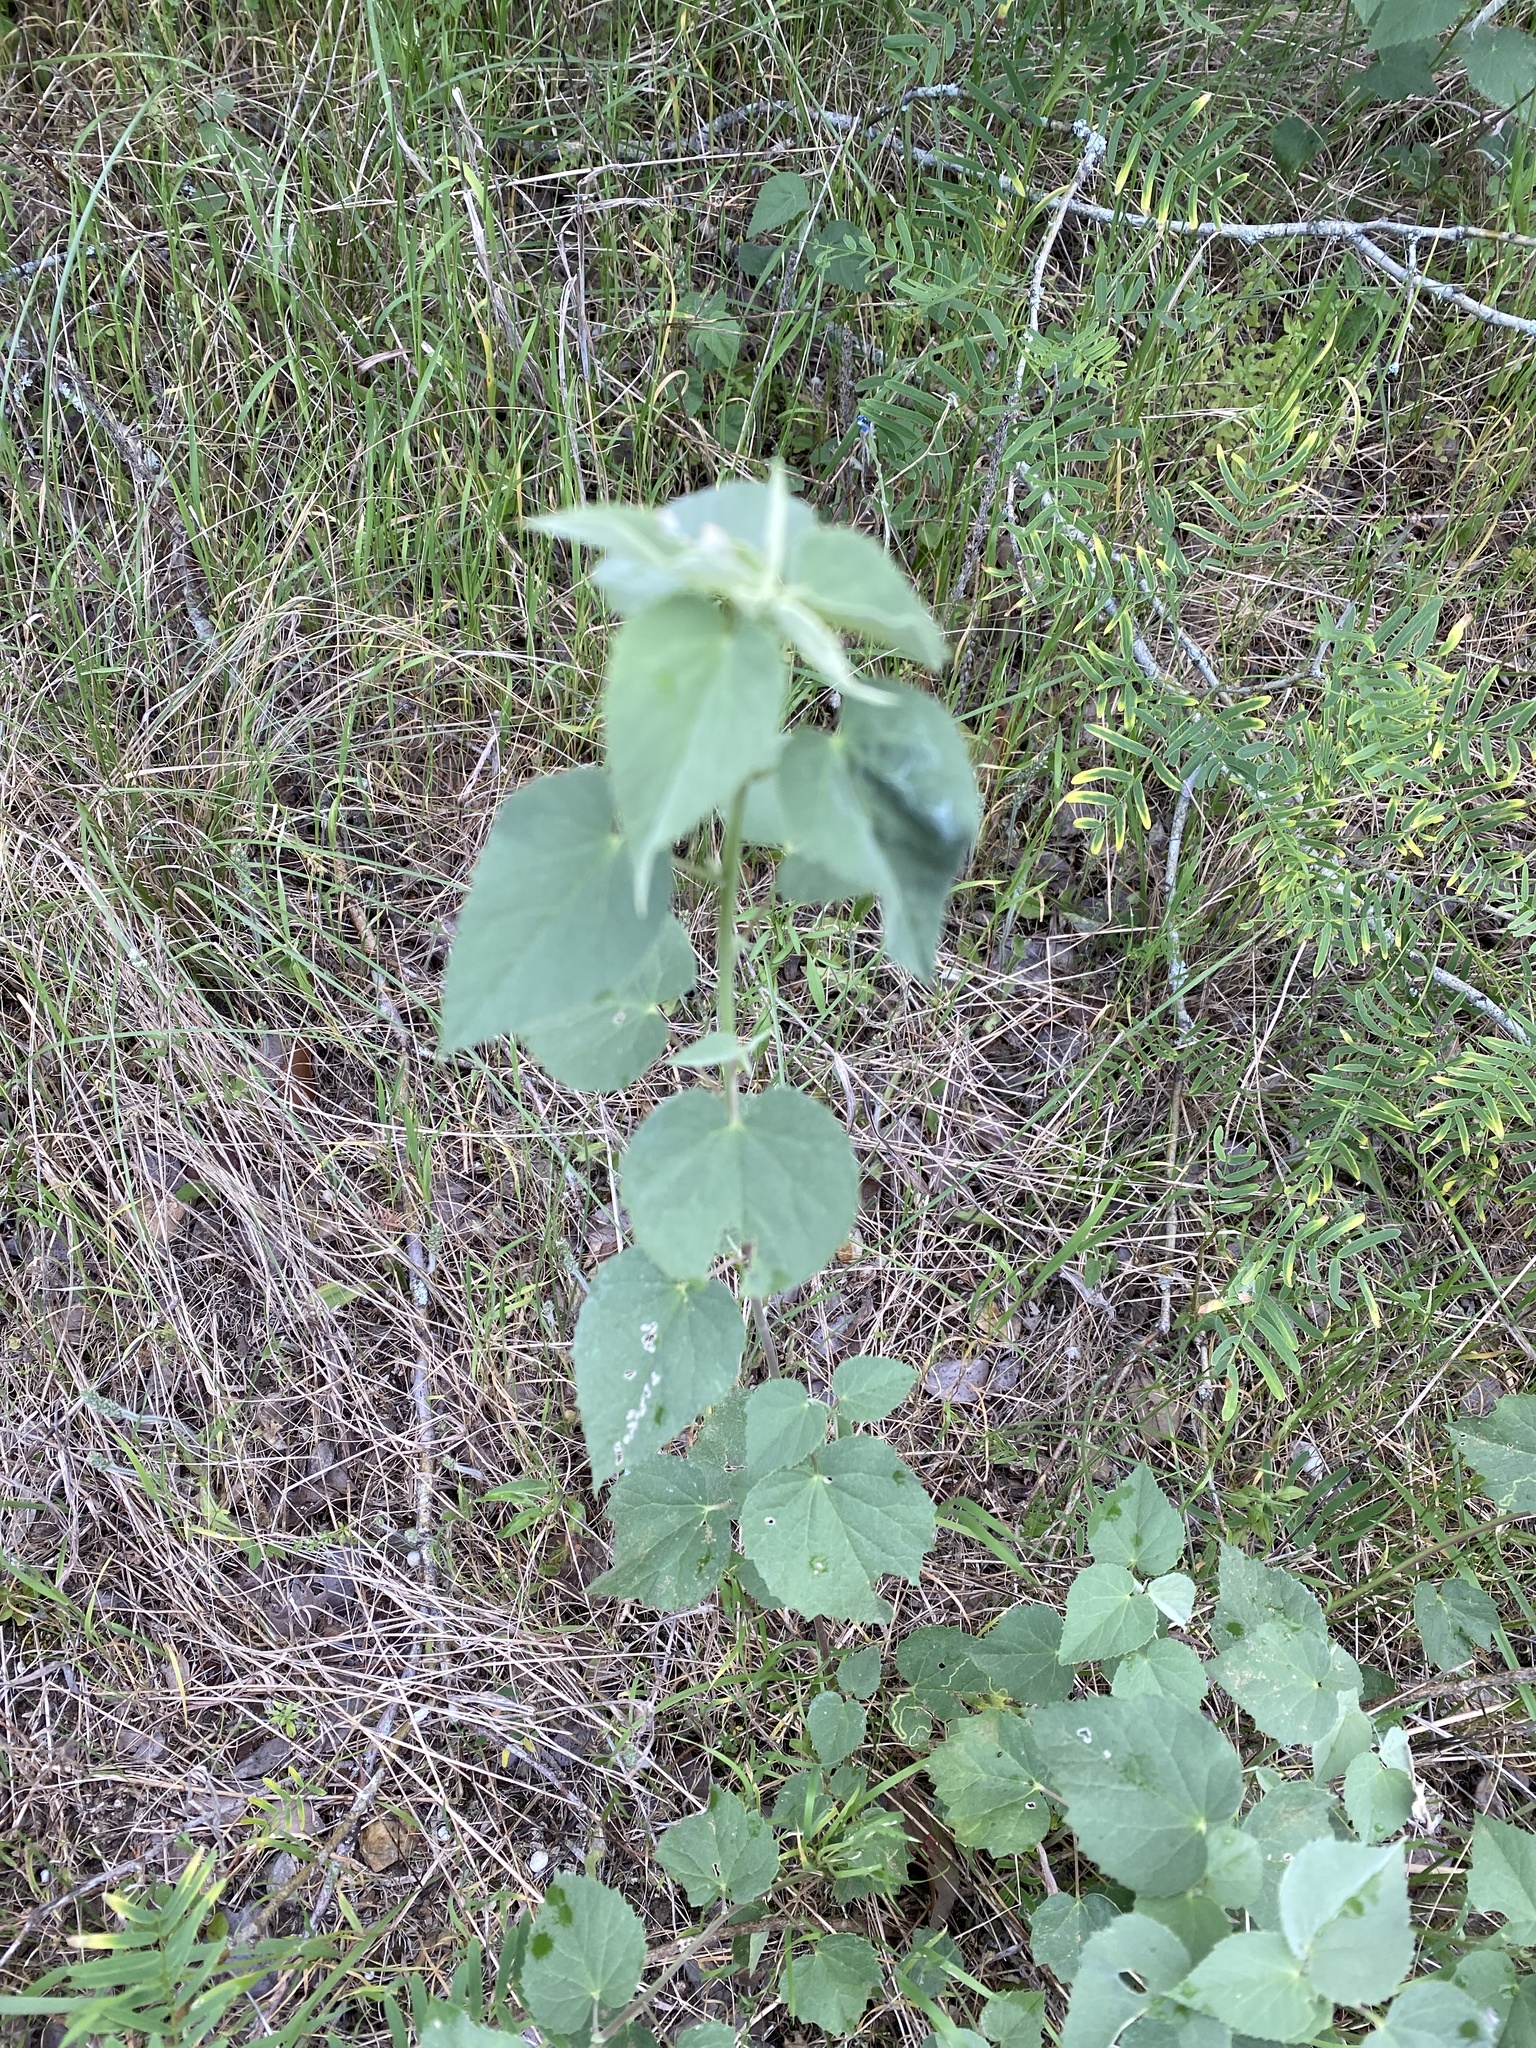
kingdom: Plantae
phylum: Tracheophyta
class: Magnoliopsida
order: Malvales
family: Malvaceae
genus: Abutilon
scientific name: Abutilon fruticosum
